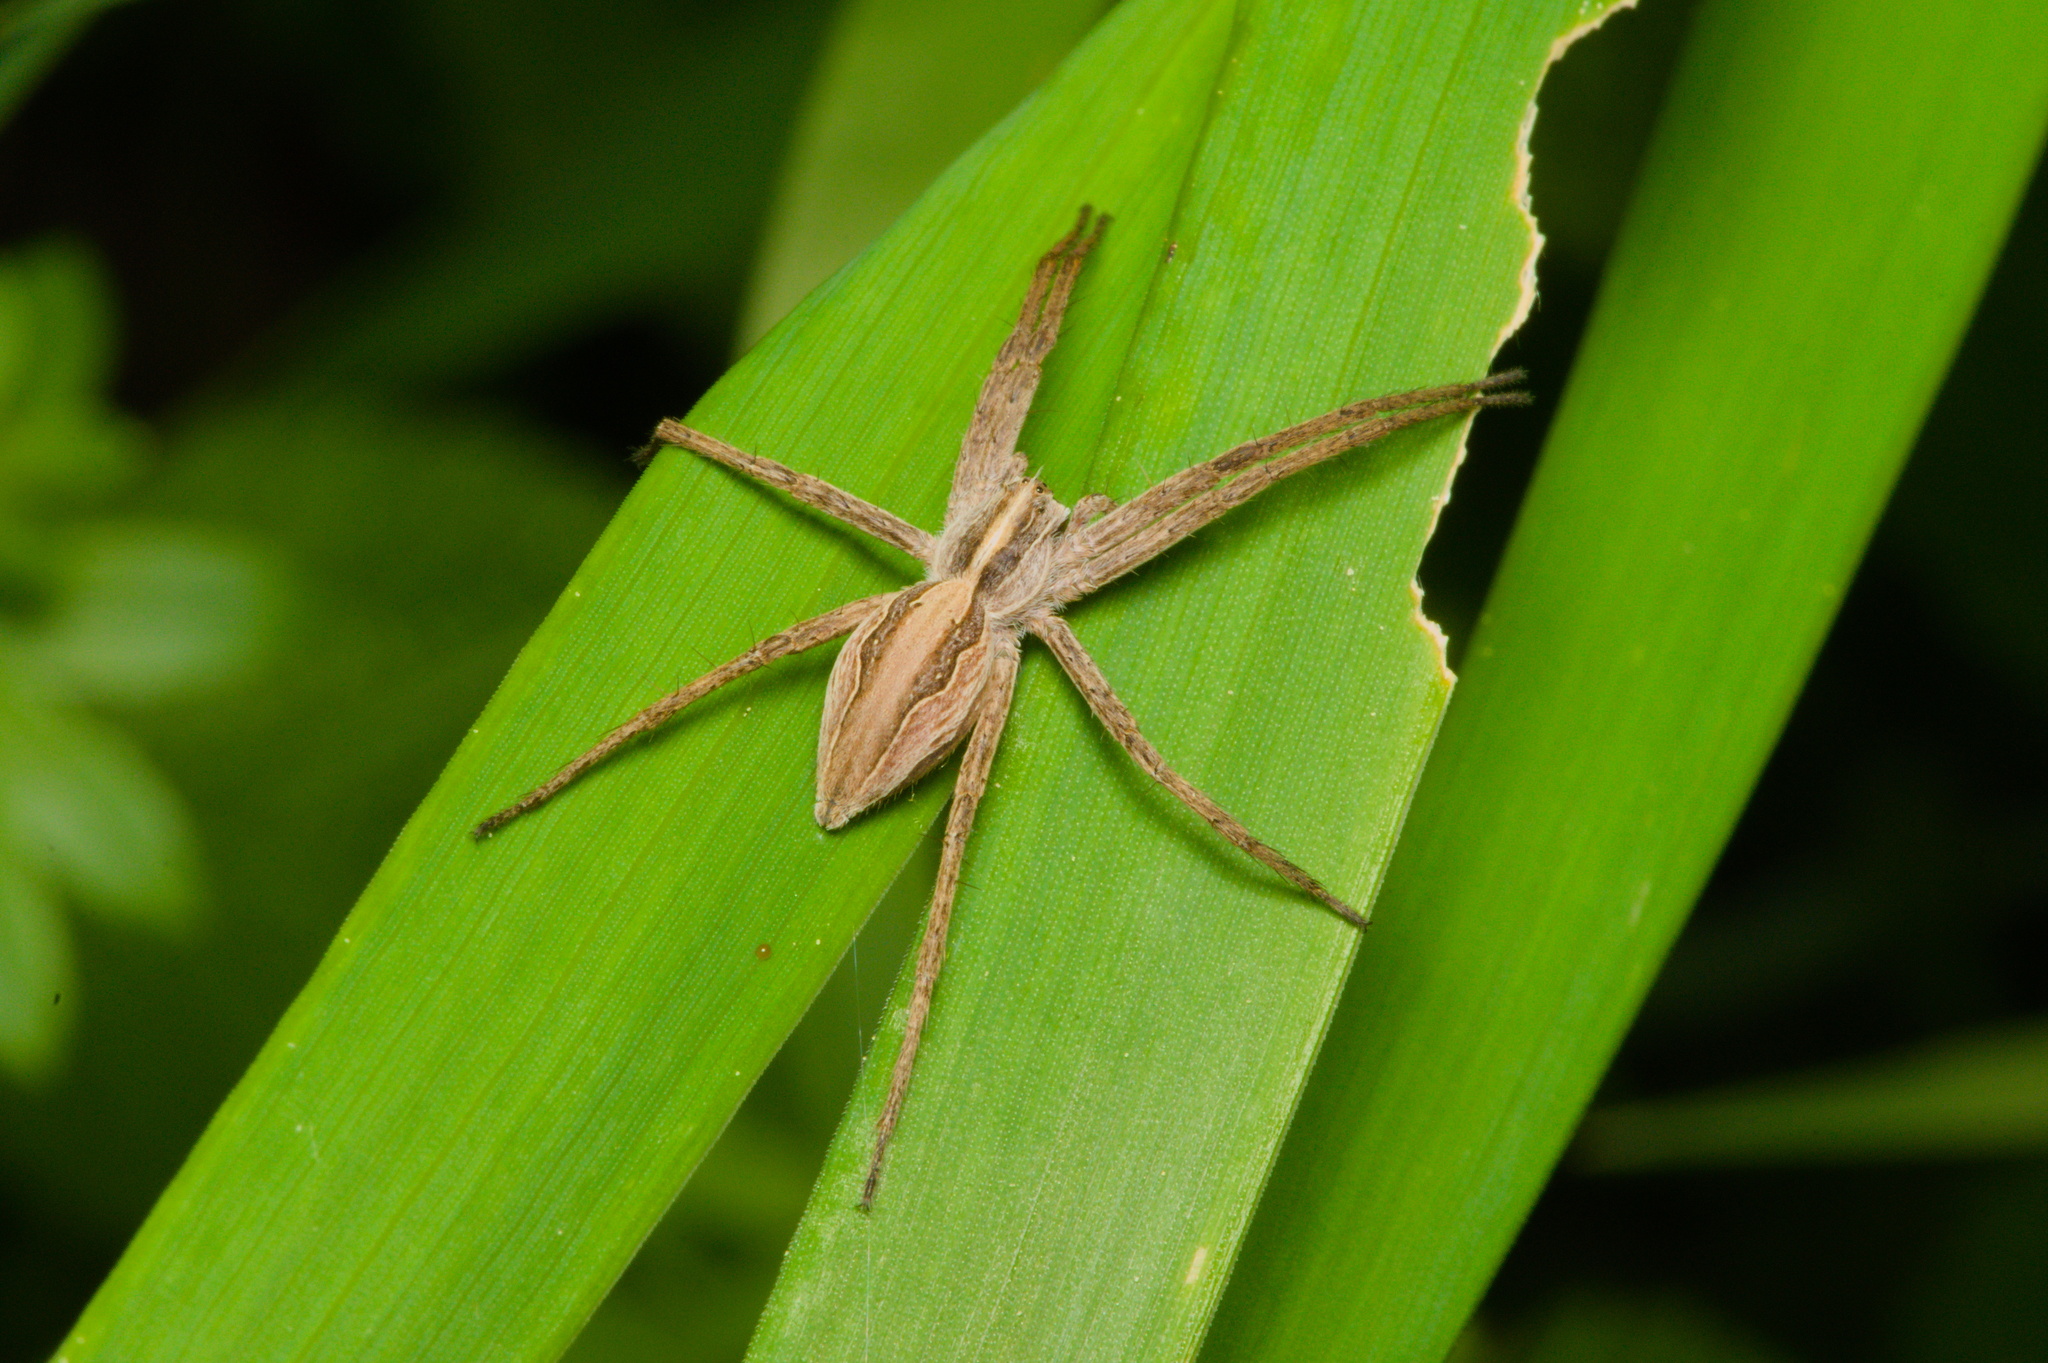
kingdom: Animalia
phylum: Arthropoda
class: Arachnida
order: Araneae
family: Pisauridae
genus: Pisaura
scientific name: Pisaura mirabilis
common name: Tent spider
